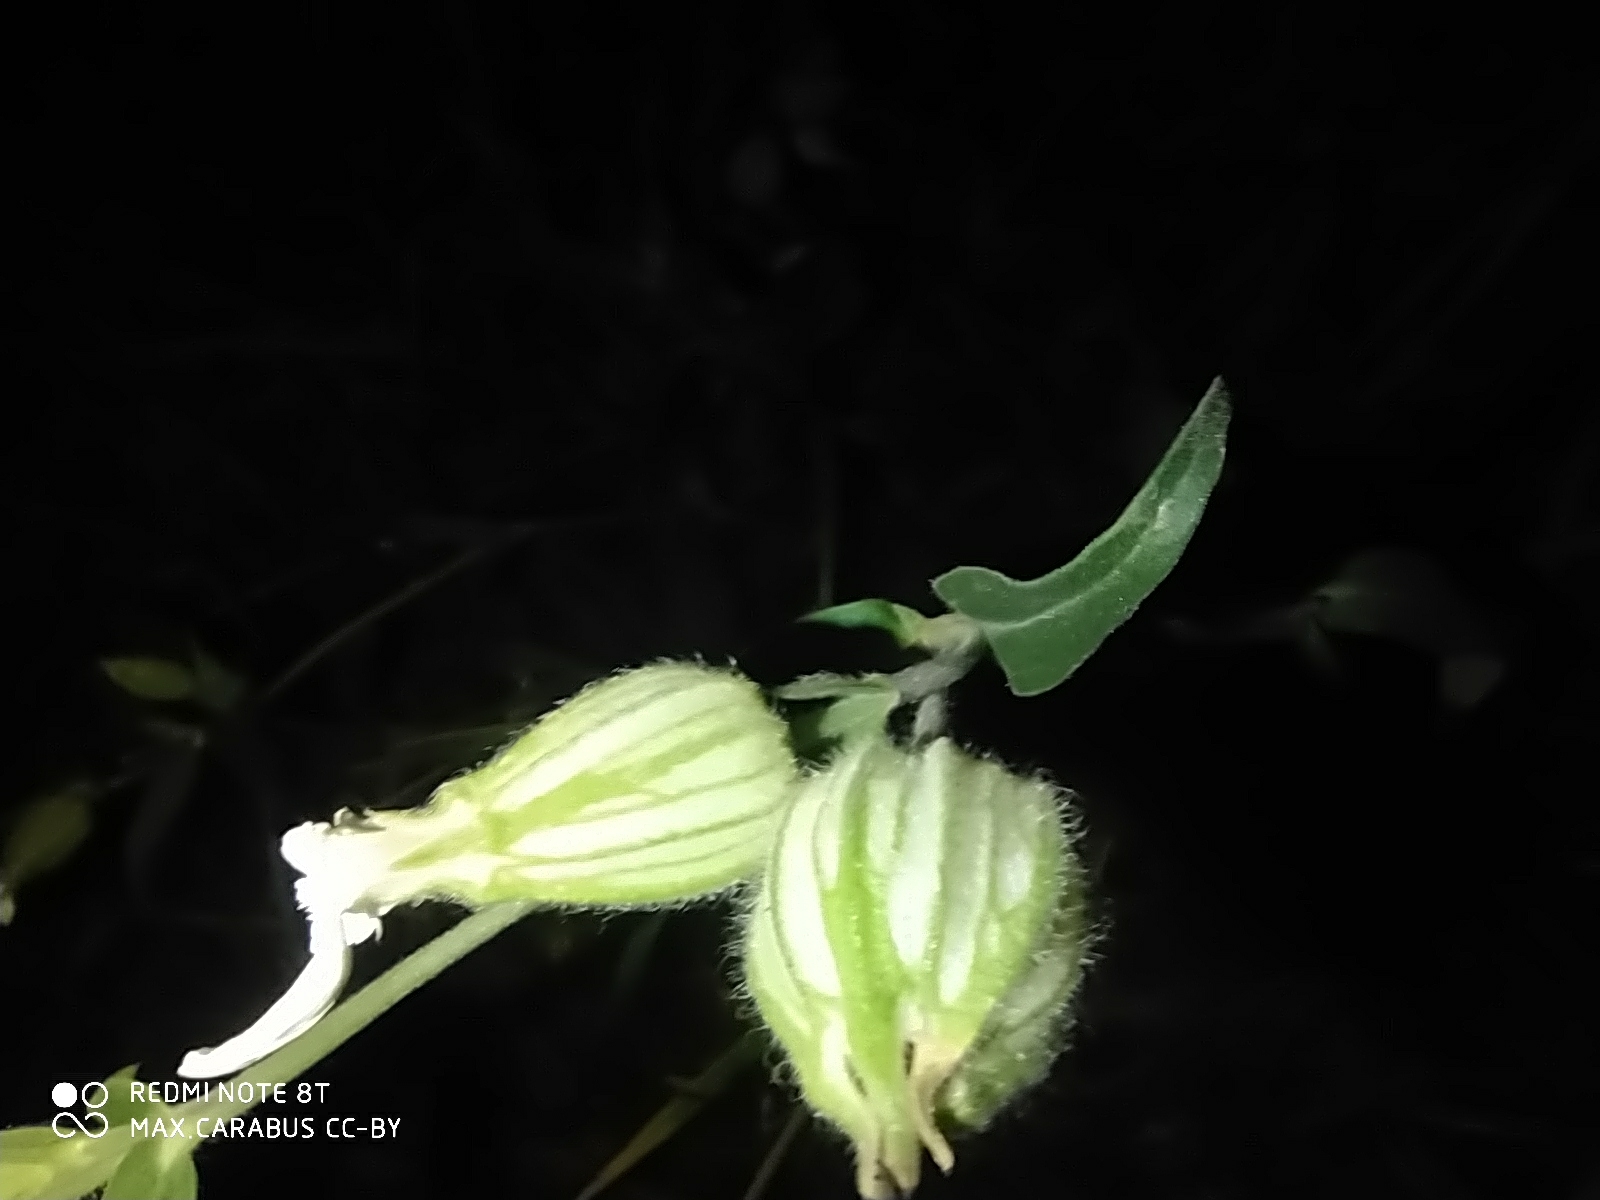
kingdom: Plantae
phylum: Tracheophyta
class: Magnoliopsida
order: Caryophyllales
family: Caryophyllaceae
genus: Silene
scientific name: Silene latifolia
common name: White campion
